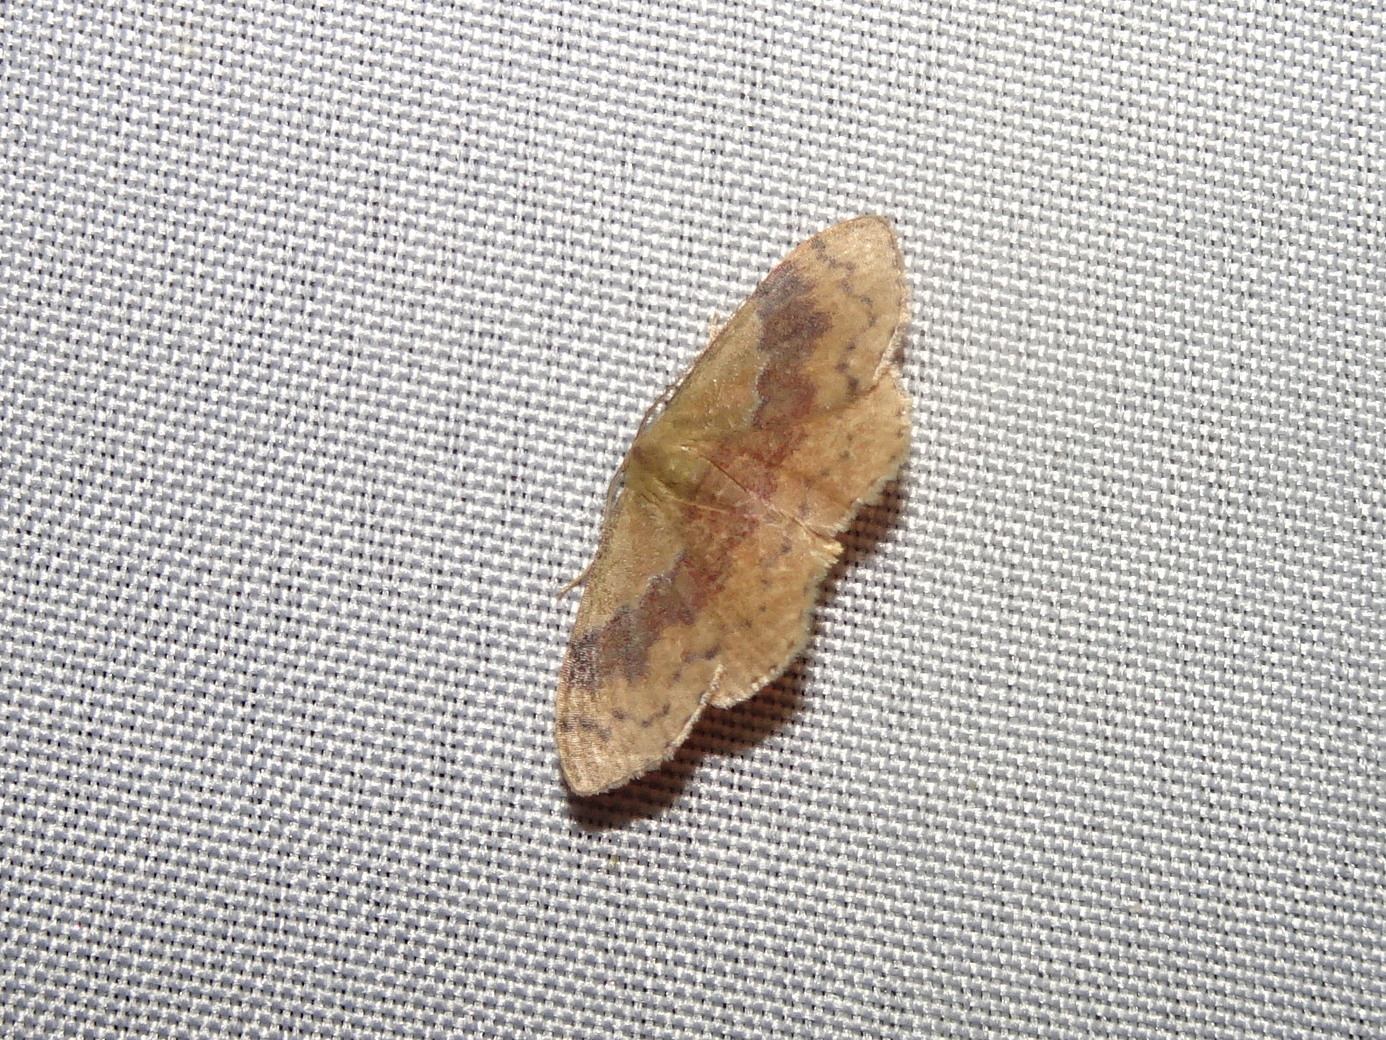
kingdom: Animalia
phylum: Arthropoda
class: Insecta
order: Lepidoptera
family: Geometridae
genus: Leptostales
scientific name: Leptostales ferruminaria
